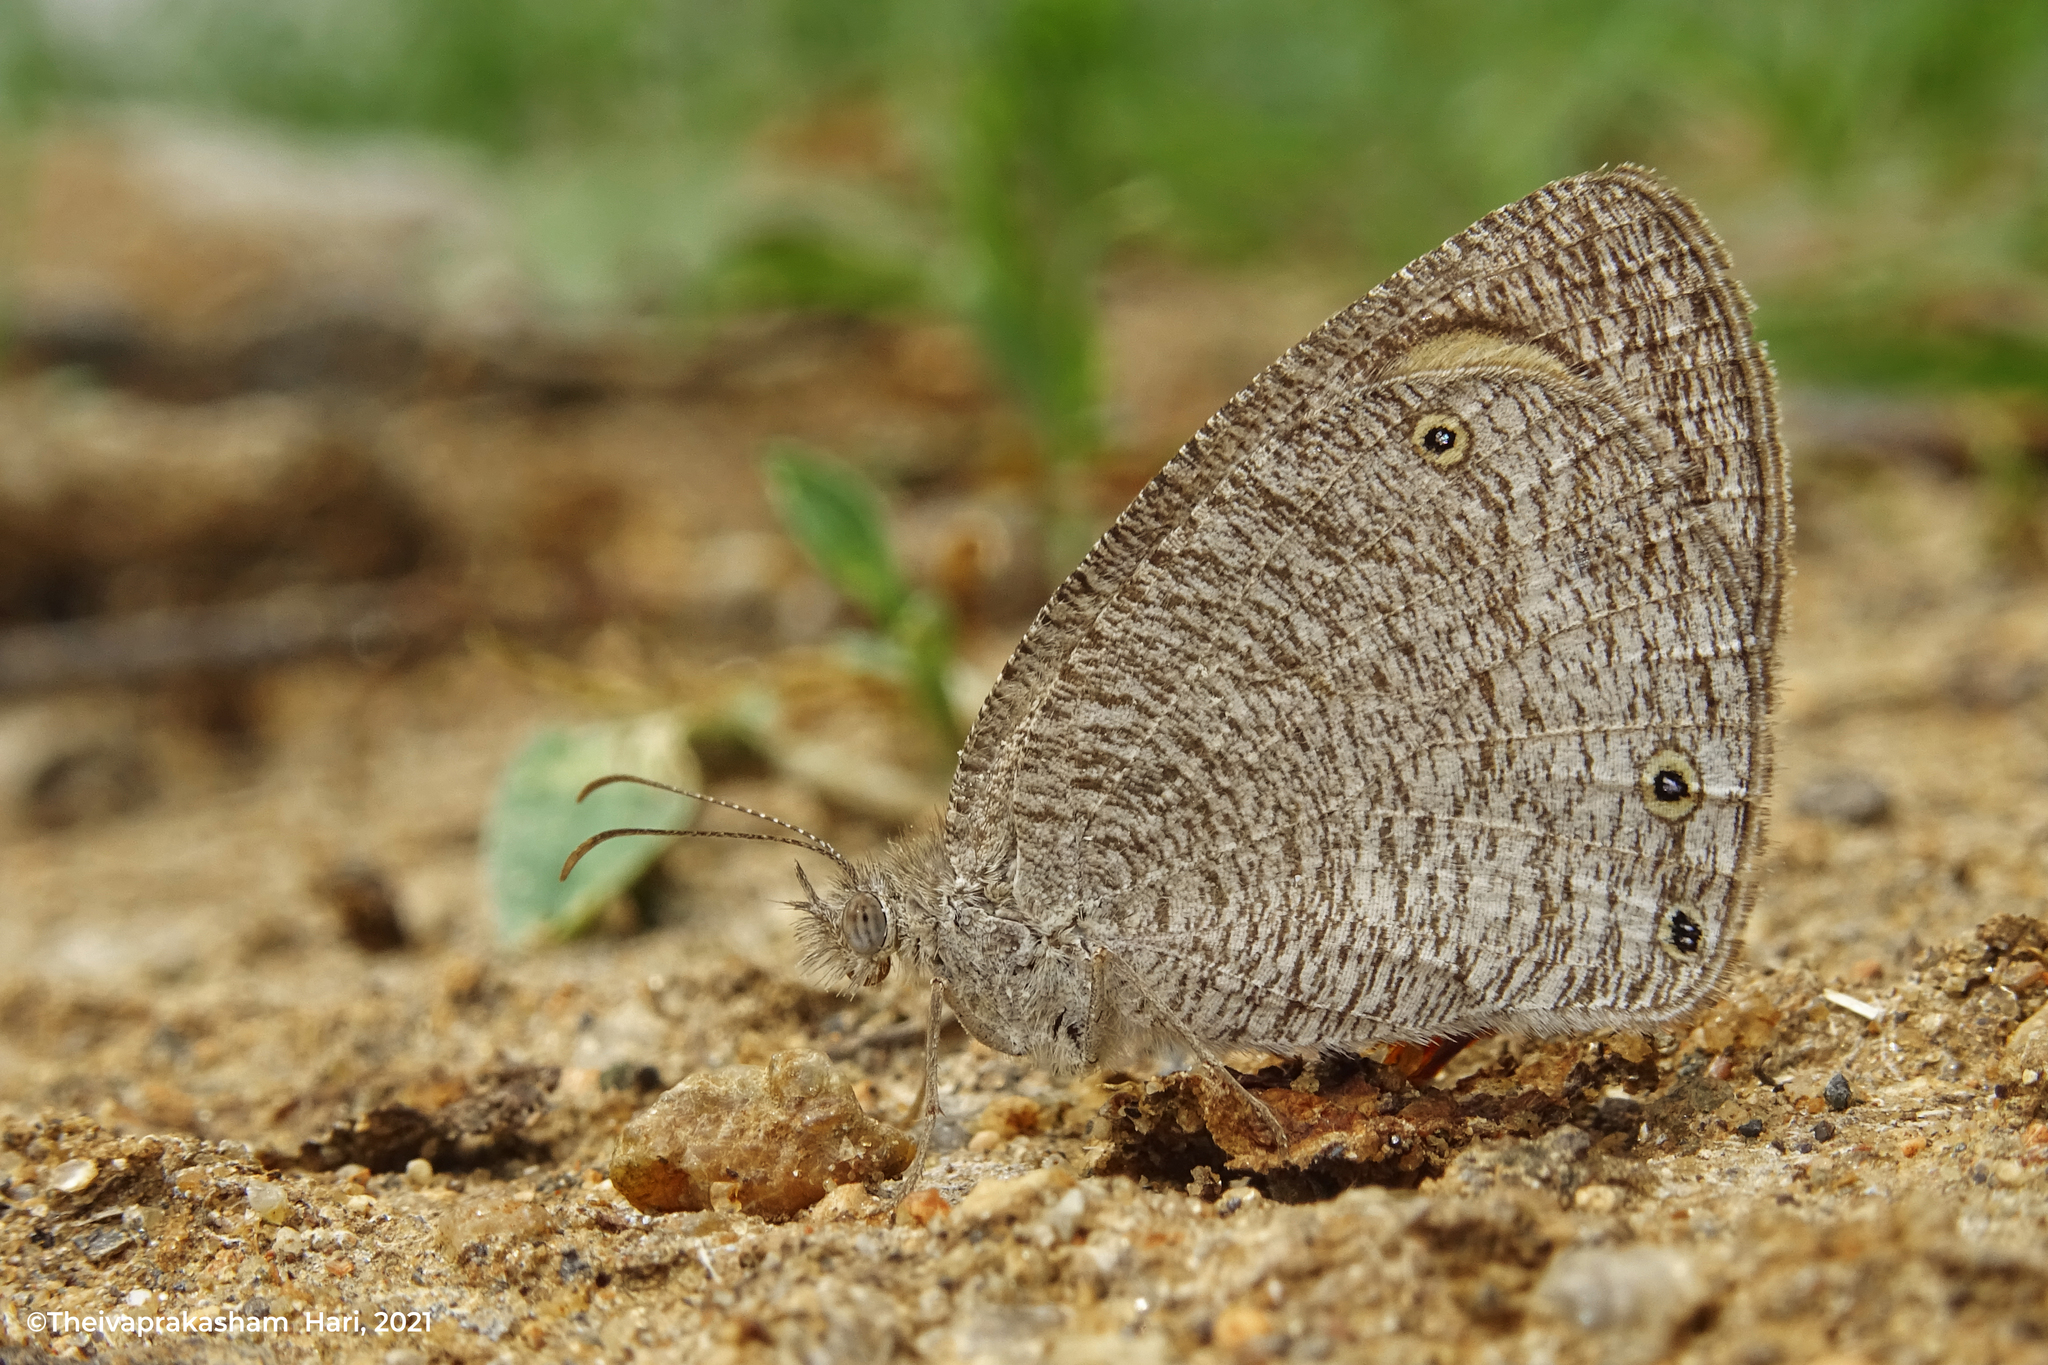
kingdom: Animalia
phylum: Arthropoda
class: Insecta
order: Lepidoptera
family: Nymphalidae
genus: Ypthima
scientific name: Ypthima asterope
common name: African ringlet
